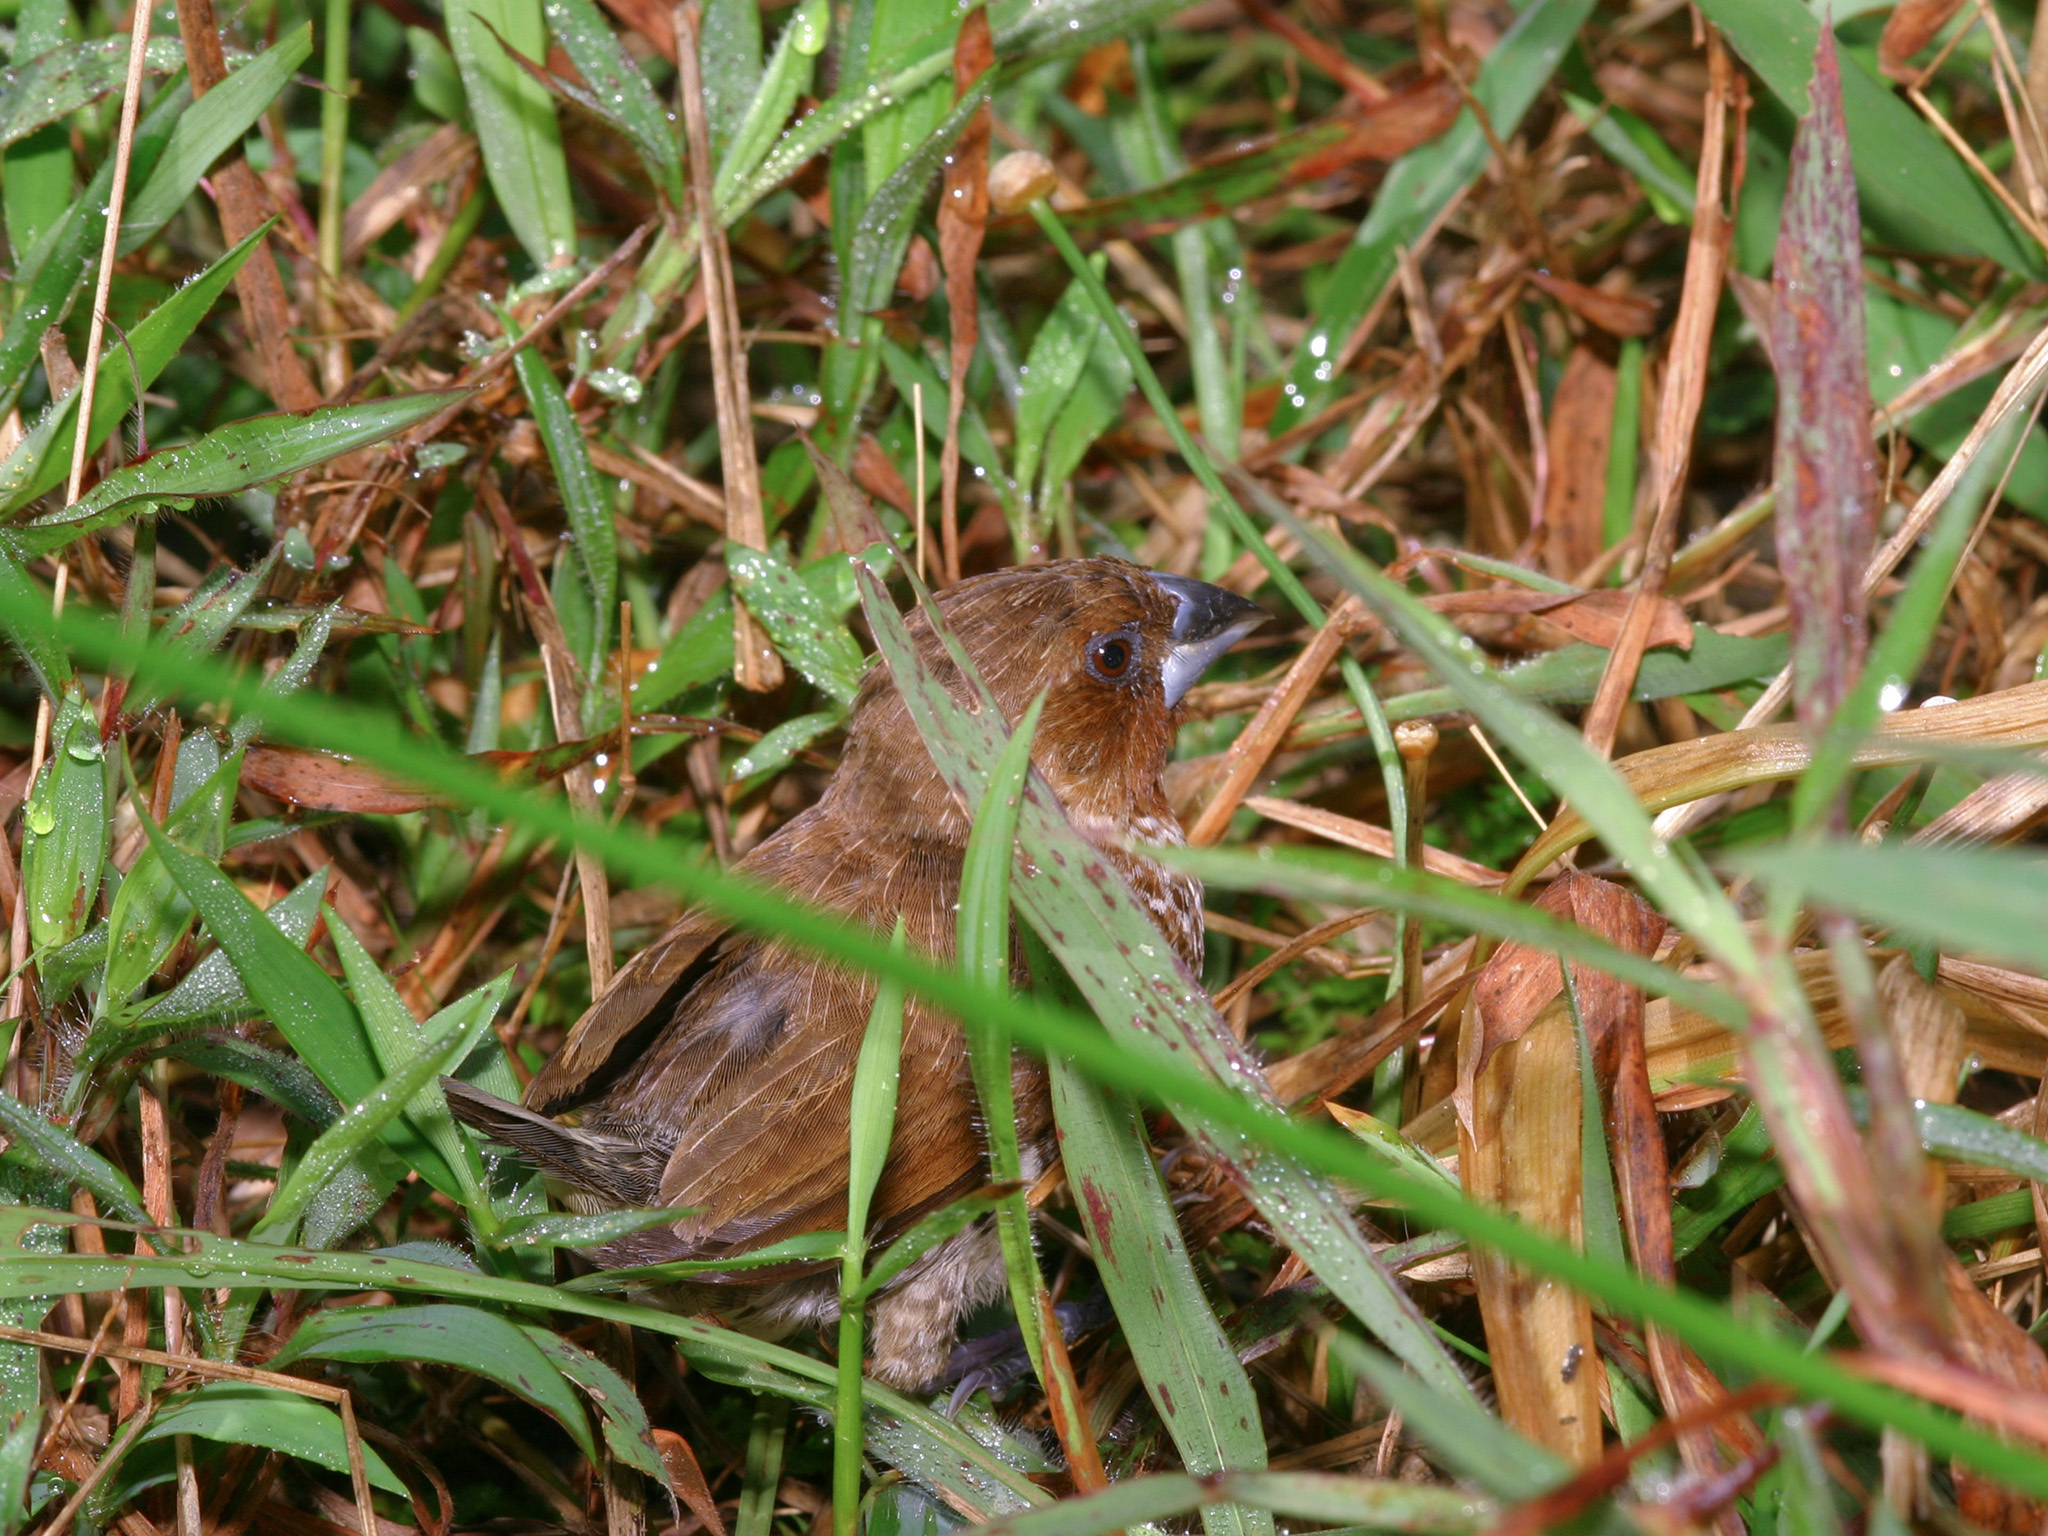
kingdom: Animalia
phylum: Chordata
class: Aves
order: Passeriformes
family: Estrildidae
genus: Lonchura
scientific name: Lonchura punctulata
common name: Scaly-breasted munia
